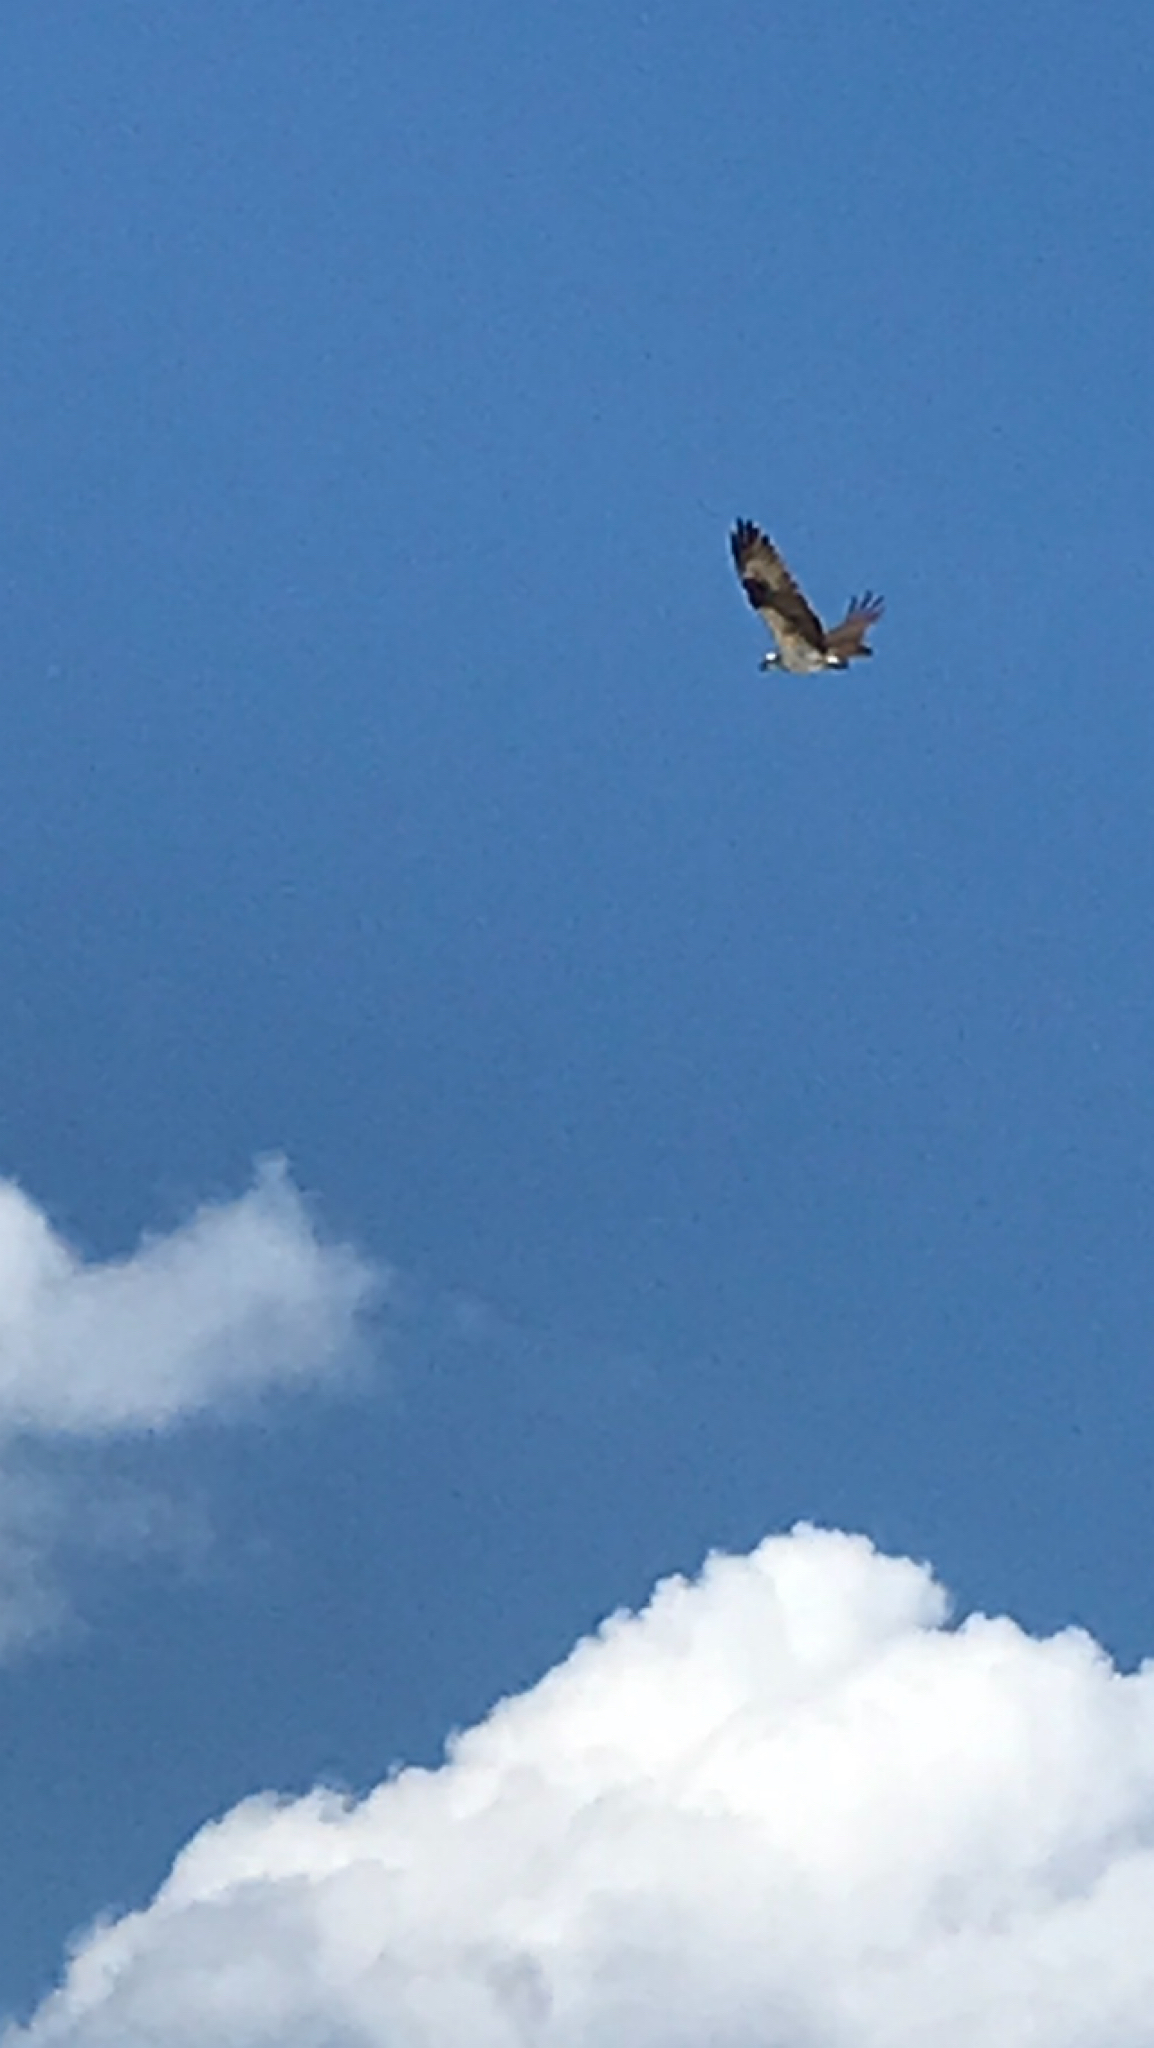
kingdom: Animalia
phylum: Chordata
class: Aves
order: Accipitriformes
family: Pandionidae
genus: Pandion
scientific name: Pandion haliaetus
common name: Osprey
